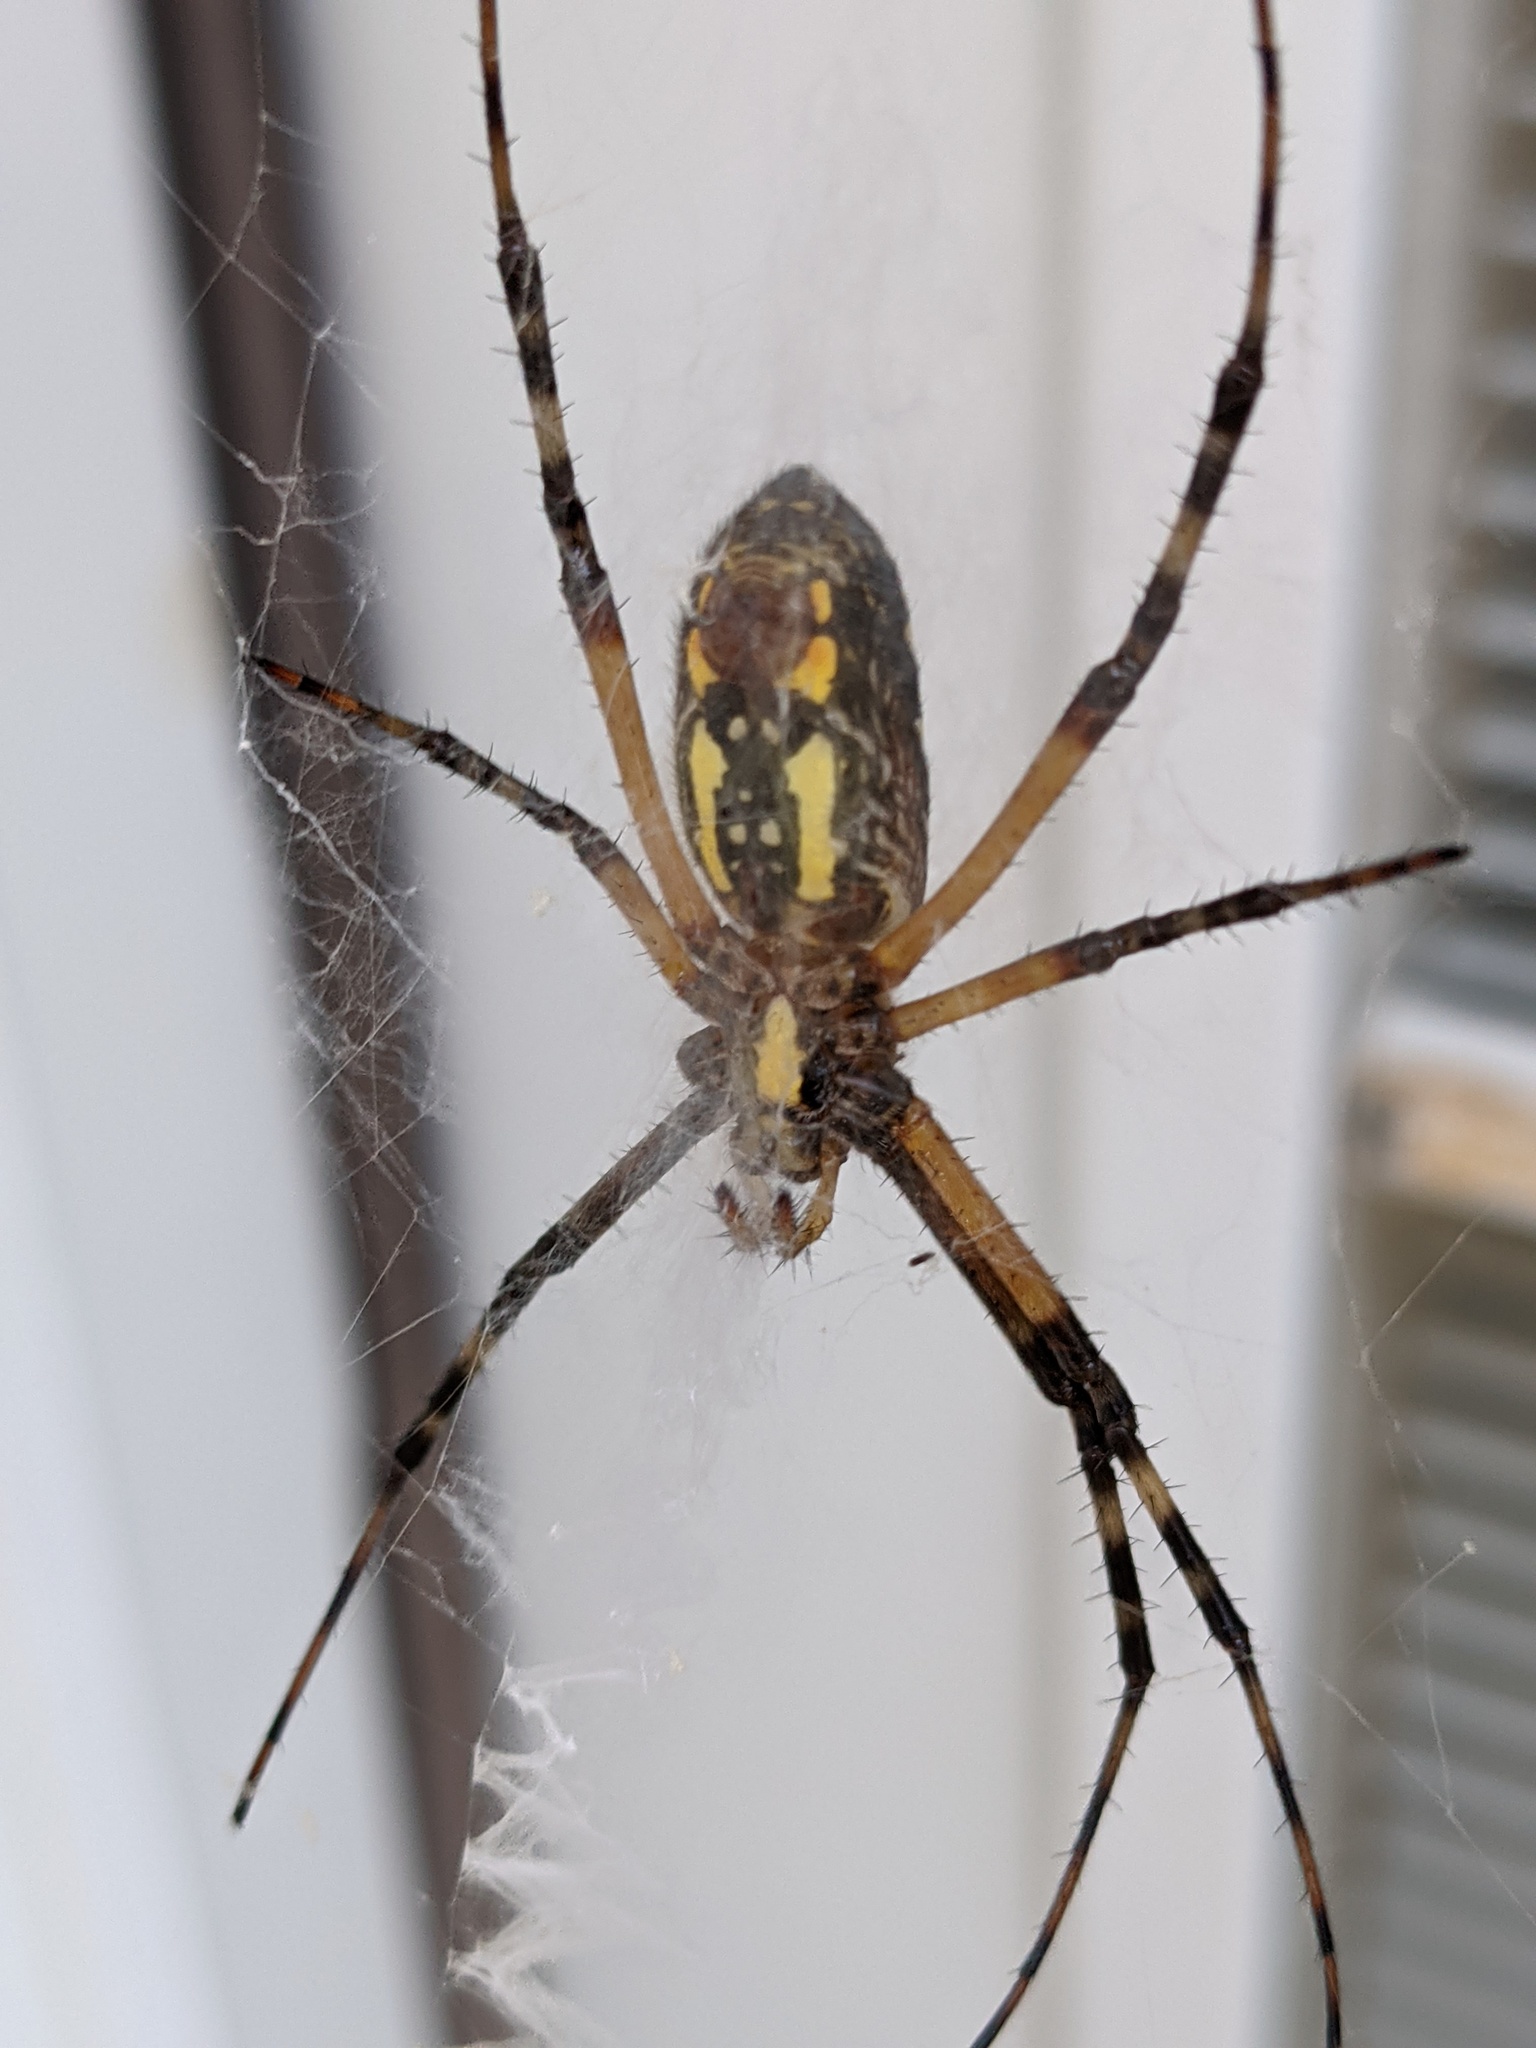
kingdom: Animalia
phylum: Arthropoda
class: Arachnida
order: Araneae
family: Araneidae
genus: Argiope
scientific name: Argiope aurantia
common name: Orb weavers
